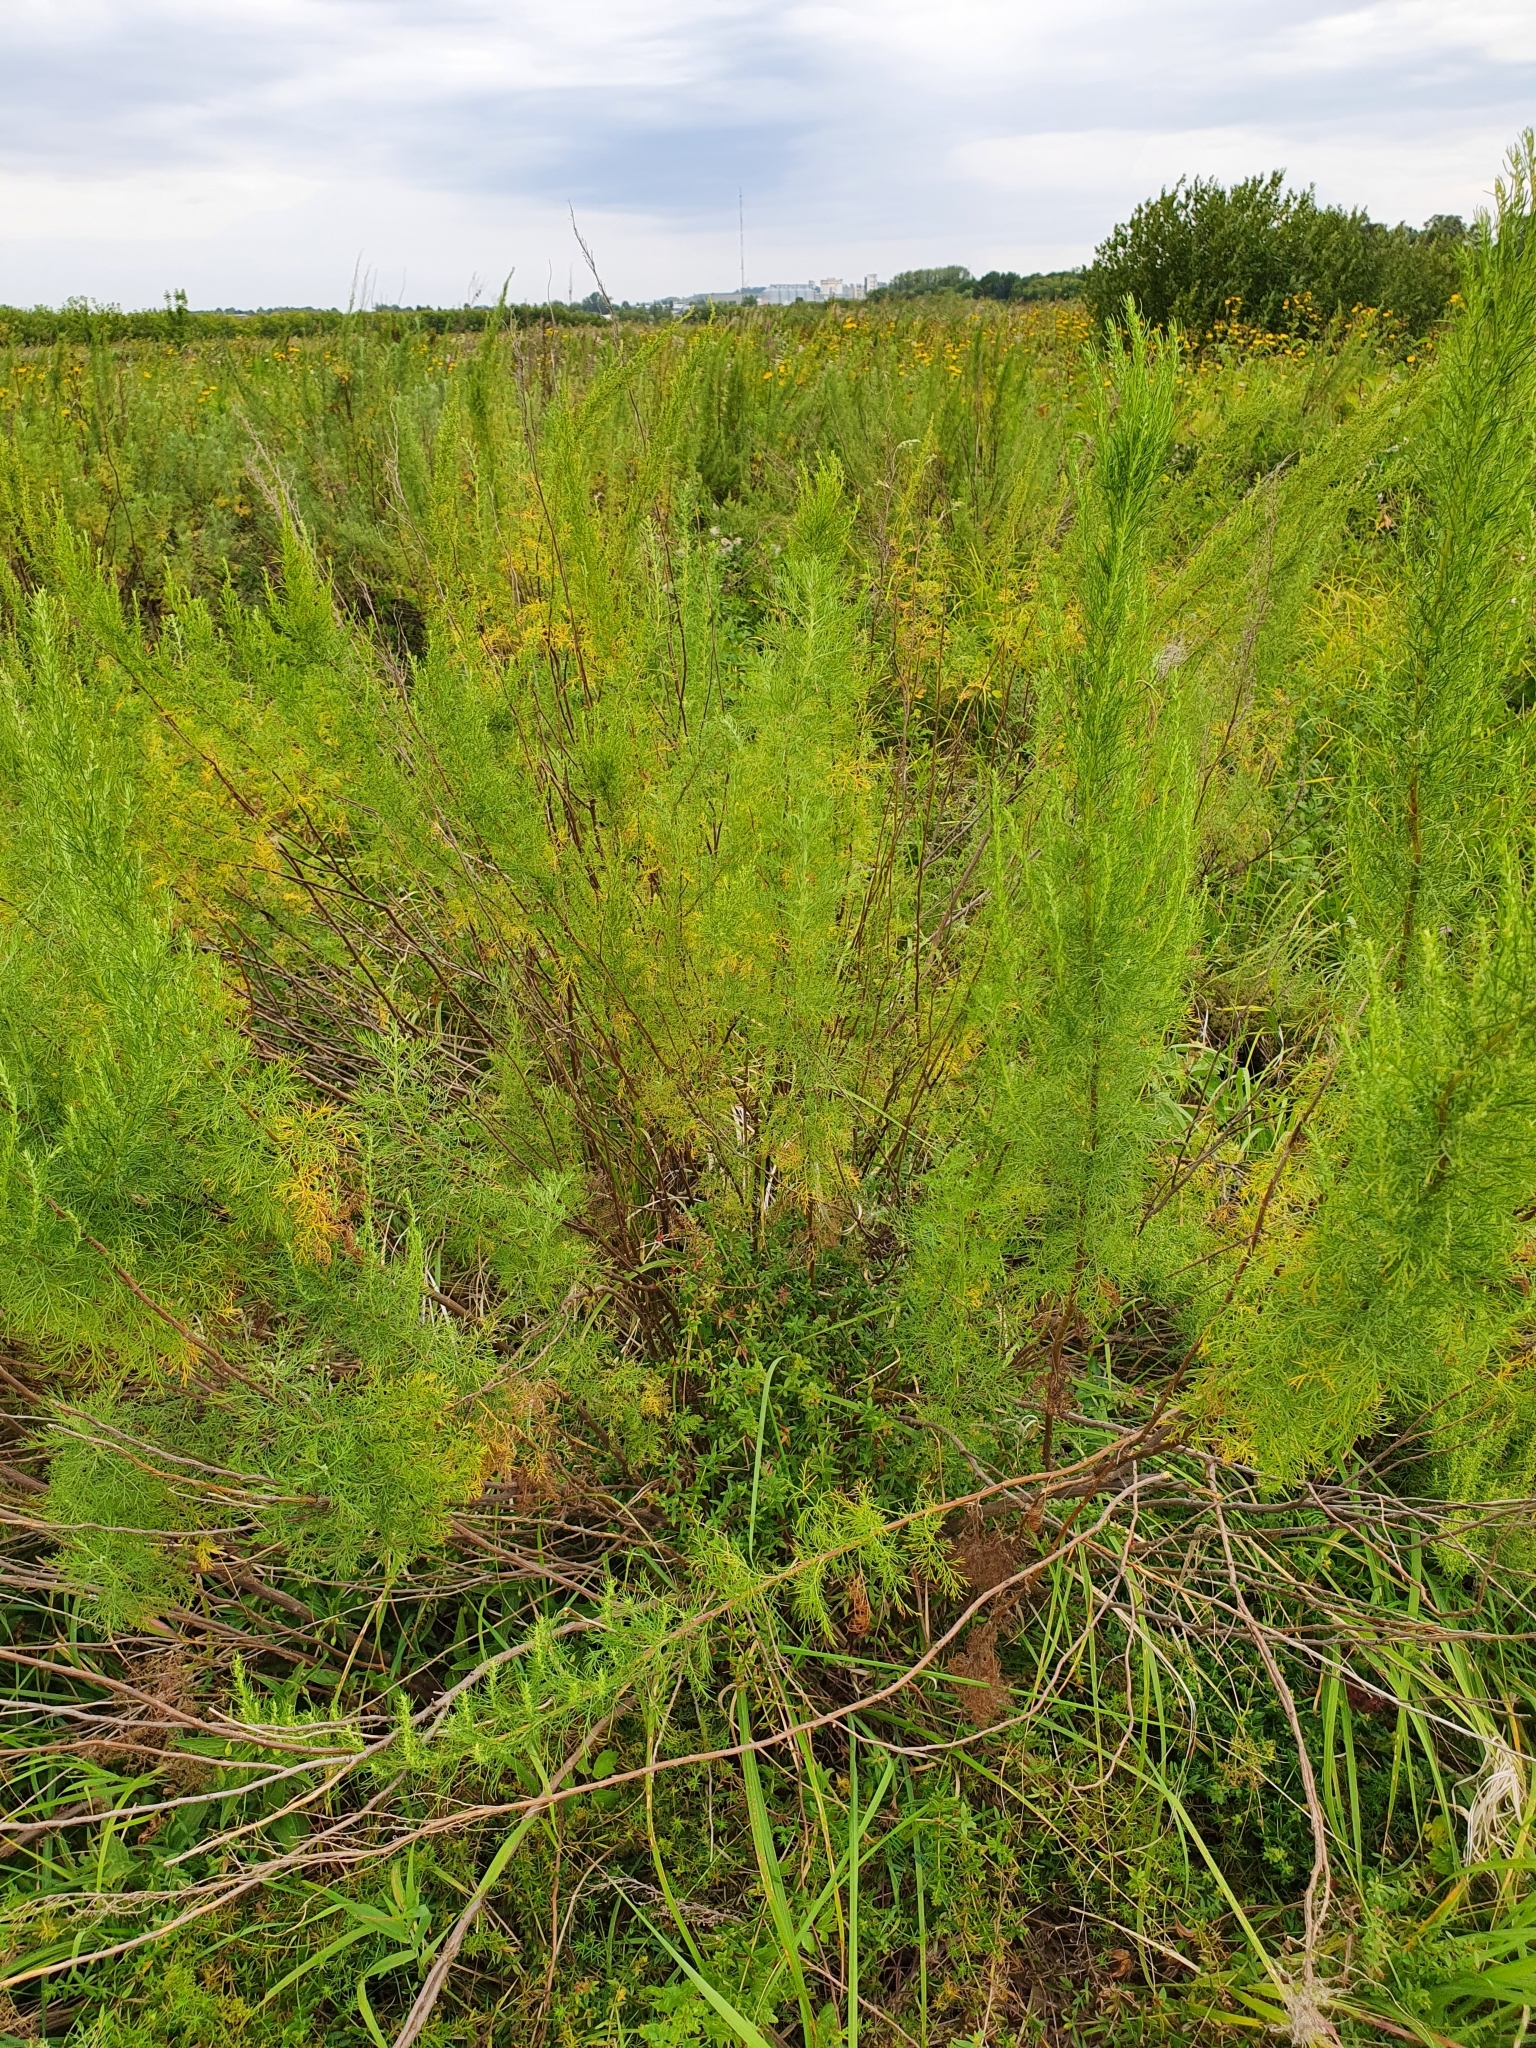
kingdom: Plantae
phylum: Tracheophyta
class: Magnoliopsida
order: Asterales
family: Asteraceae
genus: Artemisia
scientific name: Artemisia abrotanum
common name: Southernwood
